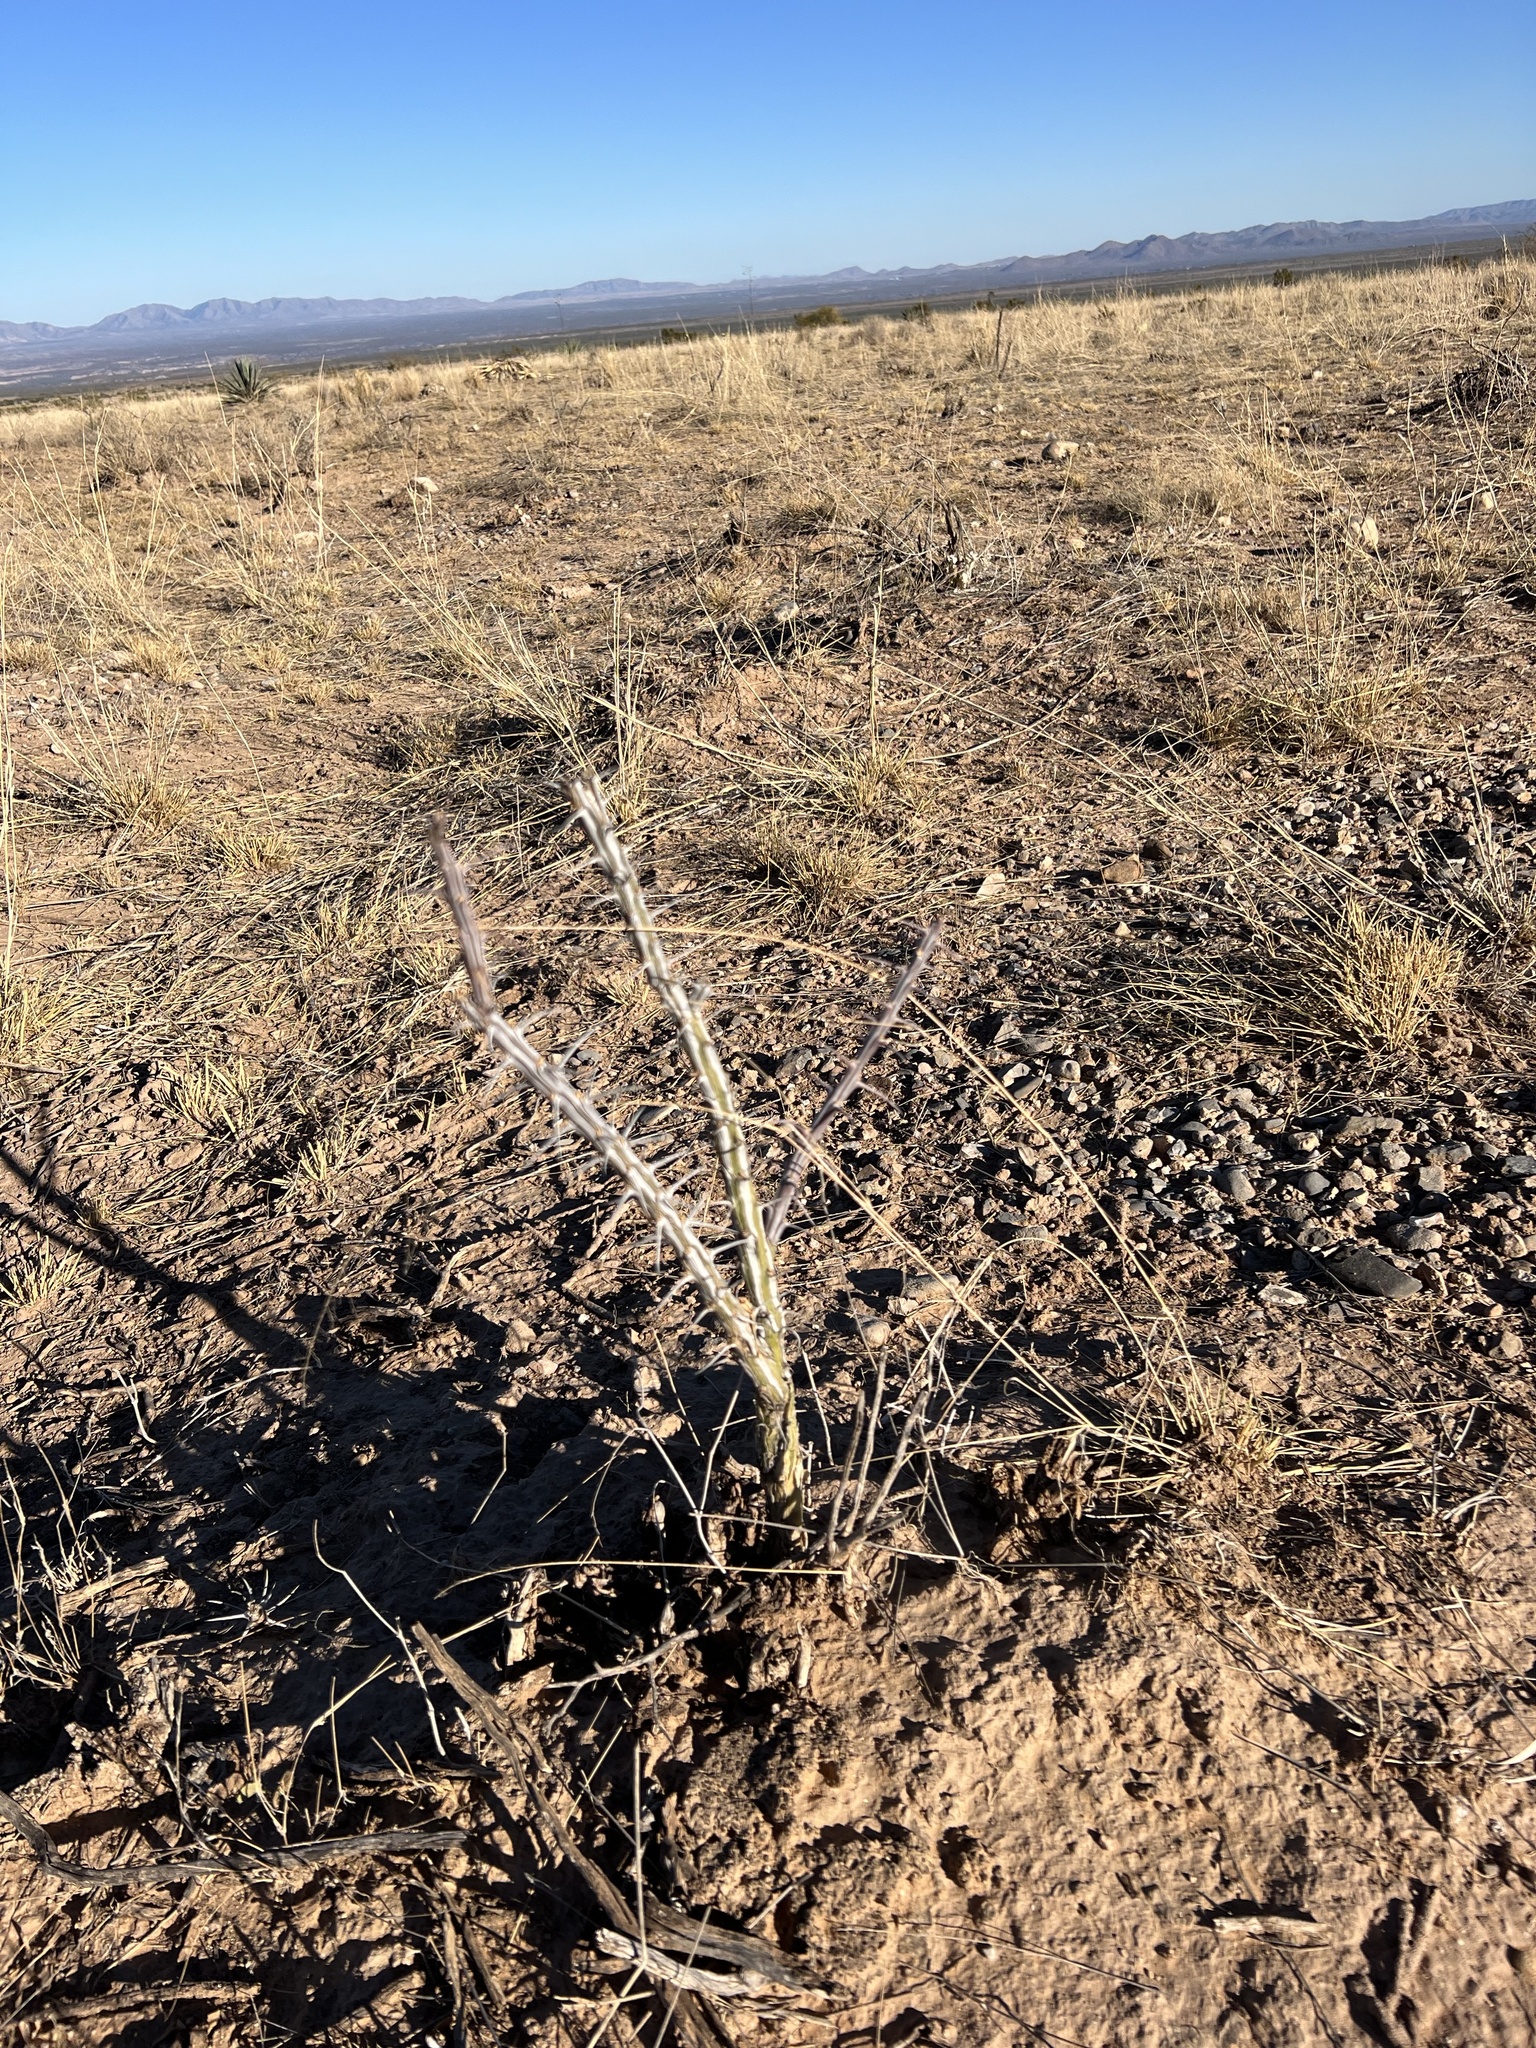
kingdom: Plantae
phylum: Tracheophyta
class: Magnoliopsida
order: Ericales
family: Fouquieriaceae
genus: Fouquieria
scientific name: Fouquieria splendens
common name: Vine-cactus
